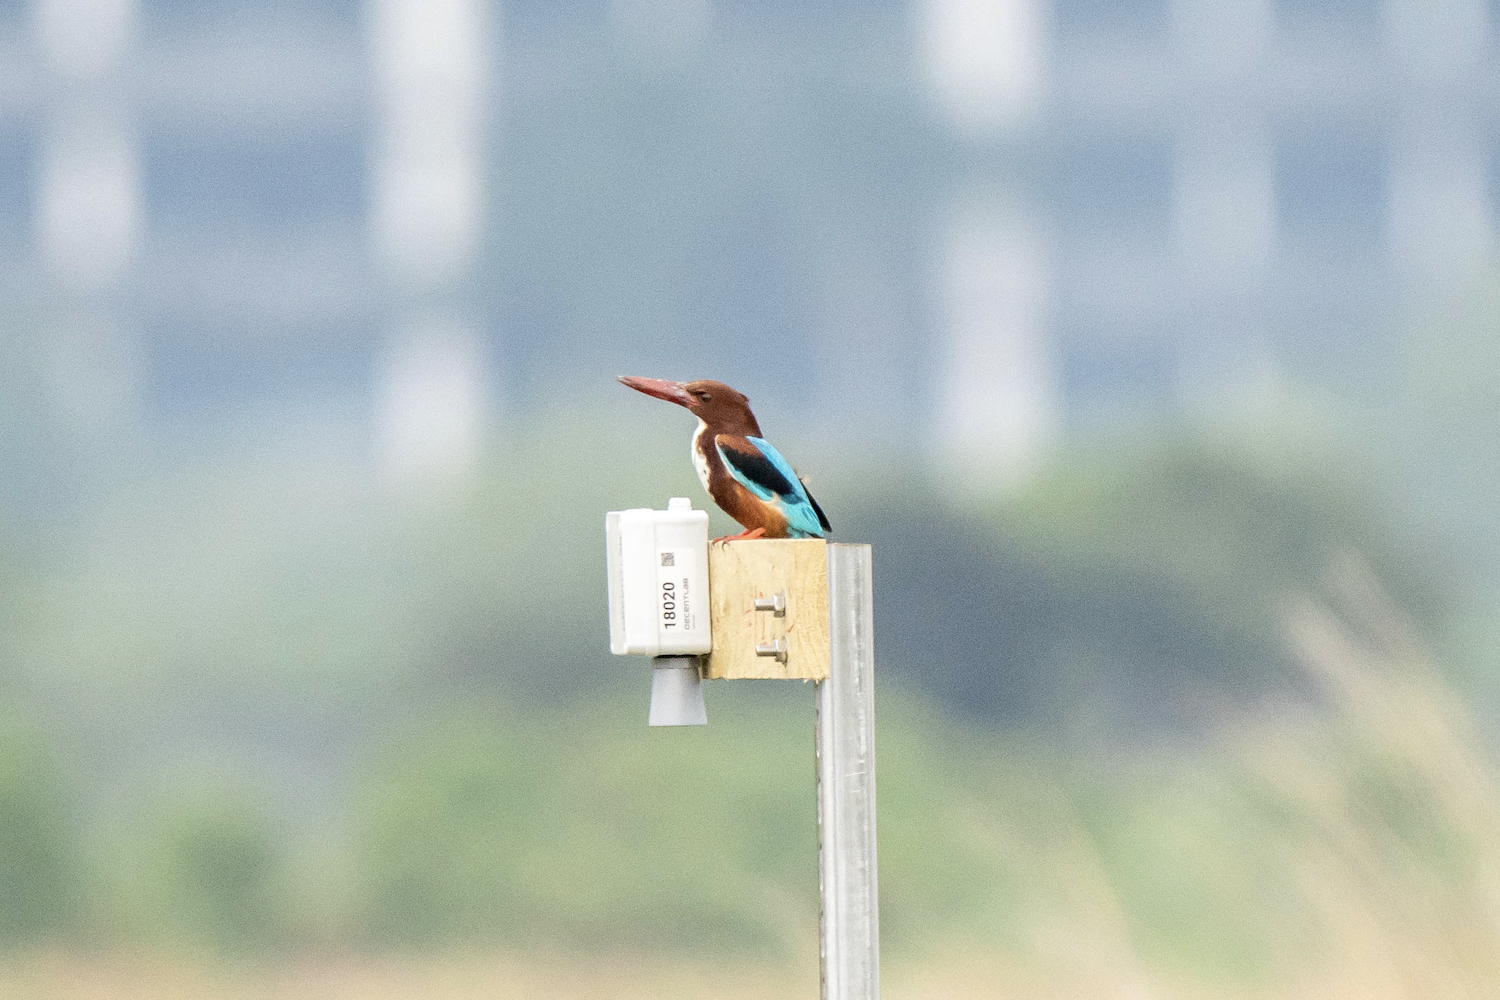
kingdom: Animalia
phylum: Chordata
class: Aves
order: Coraciiformes
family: Alcedinidae
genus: Halcyon
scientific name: Halcyon smyrnensis
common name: White-throated kingfisher
